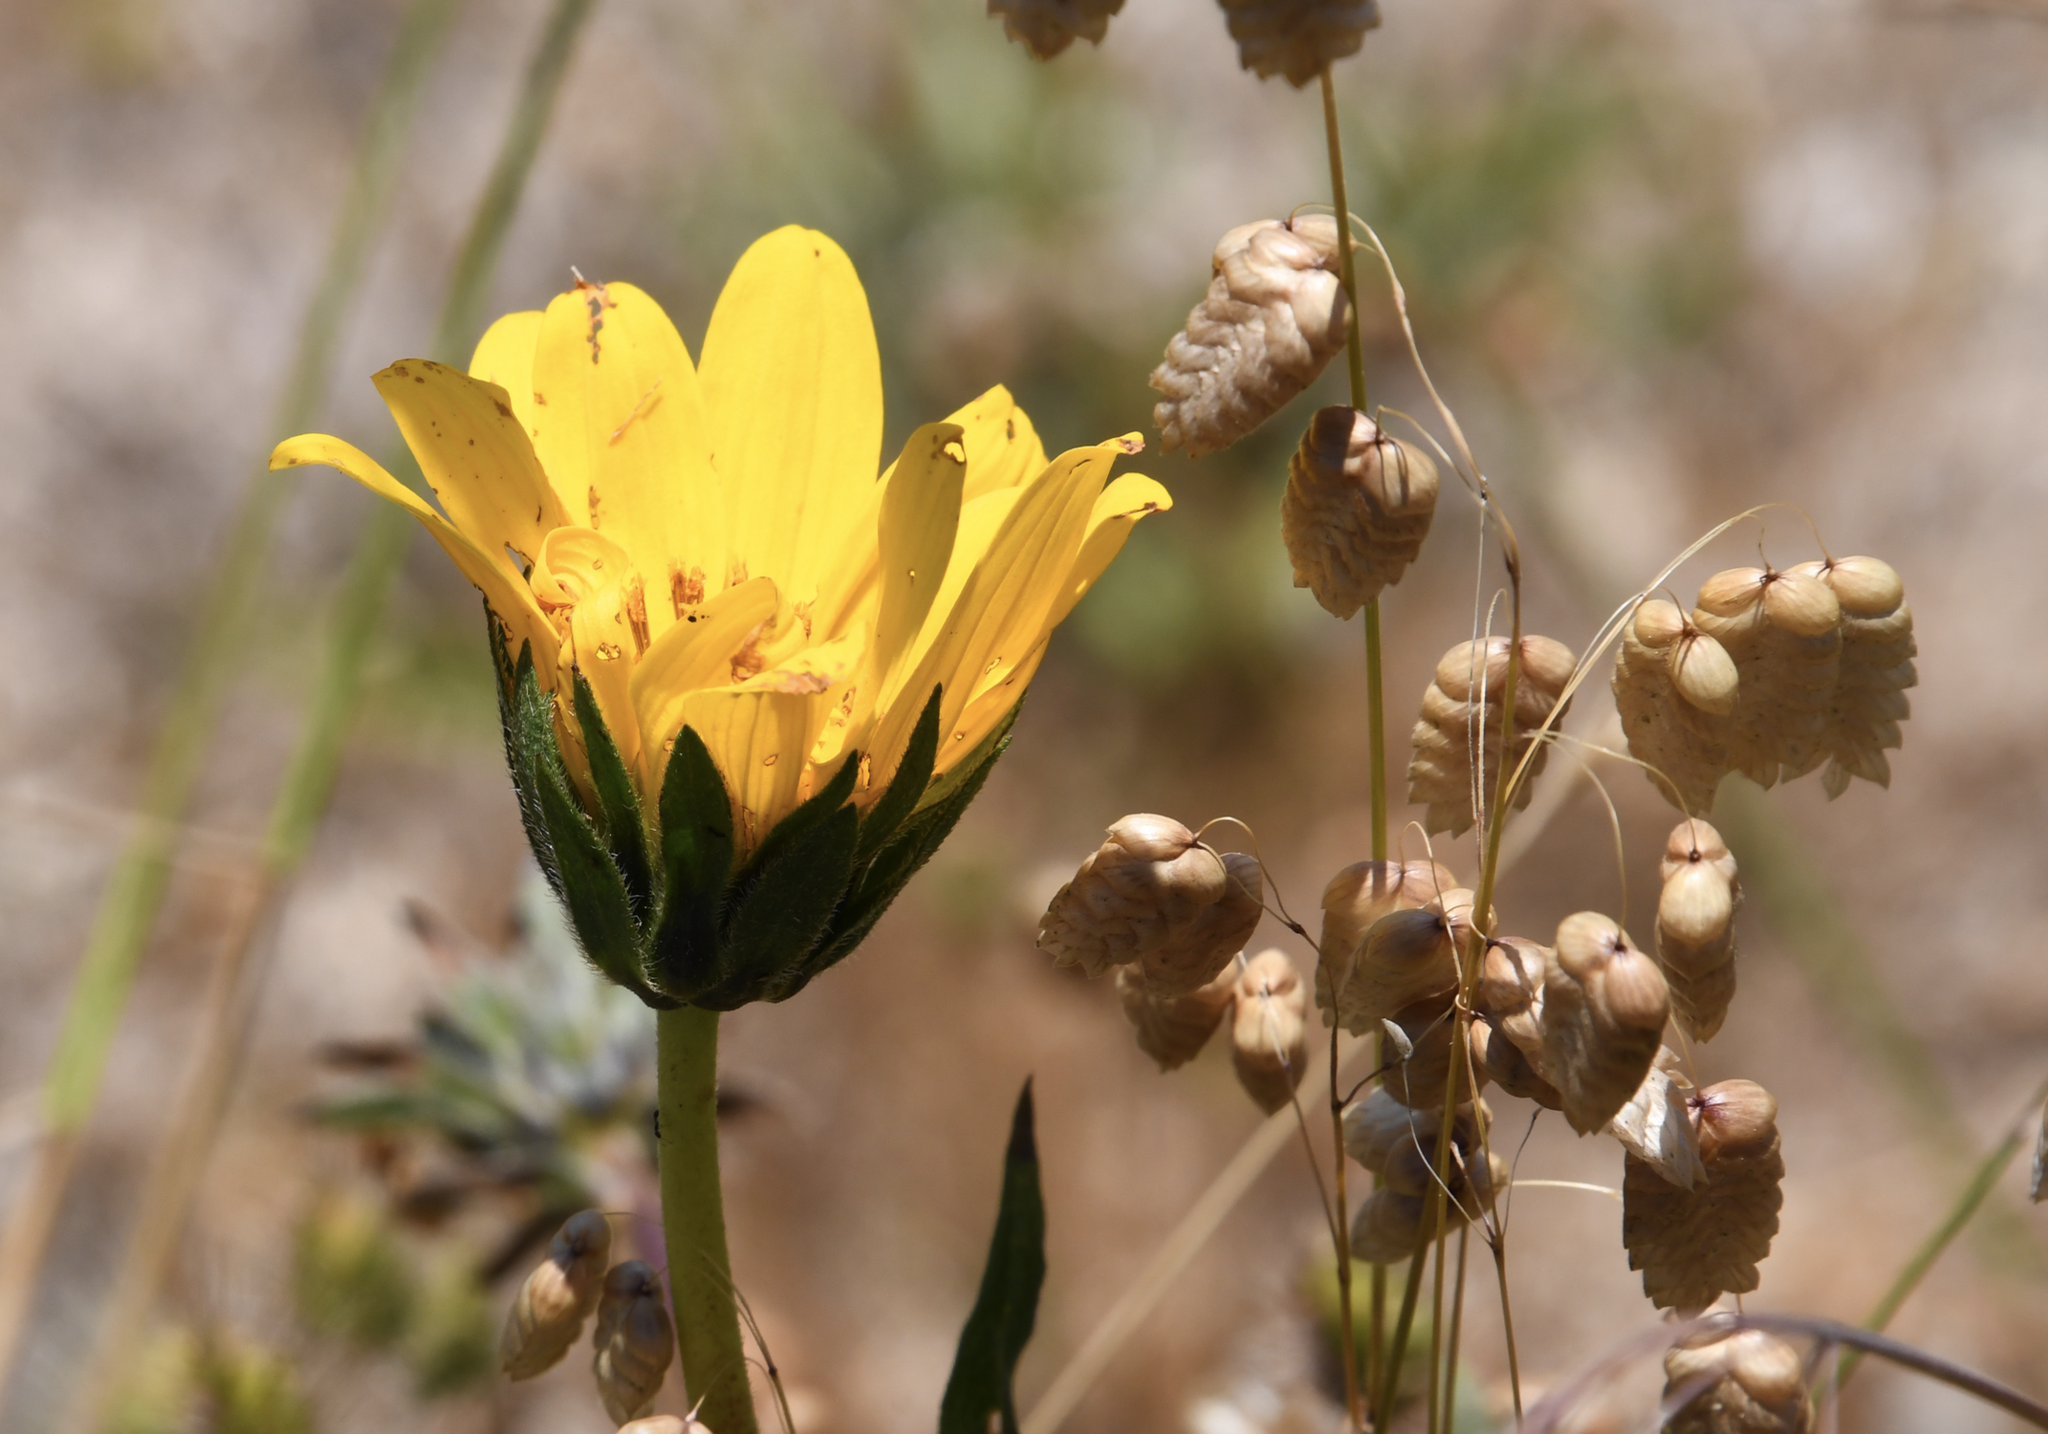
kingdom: Plantae
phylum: Tracheophyta
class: Magnoliopsida
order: Asterales
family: Asteraceae
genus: Wyethia
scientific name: Wyethia angustifolia
